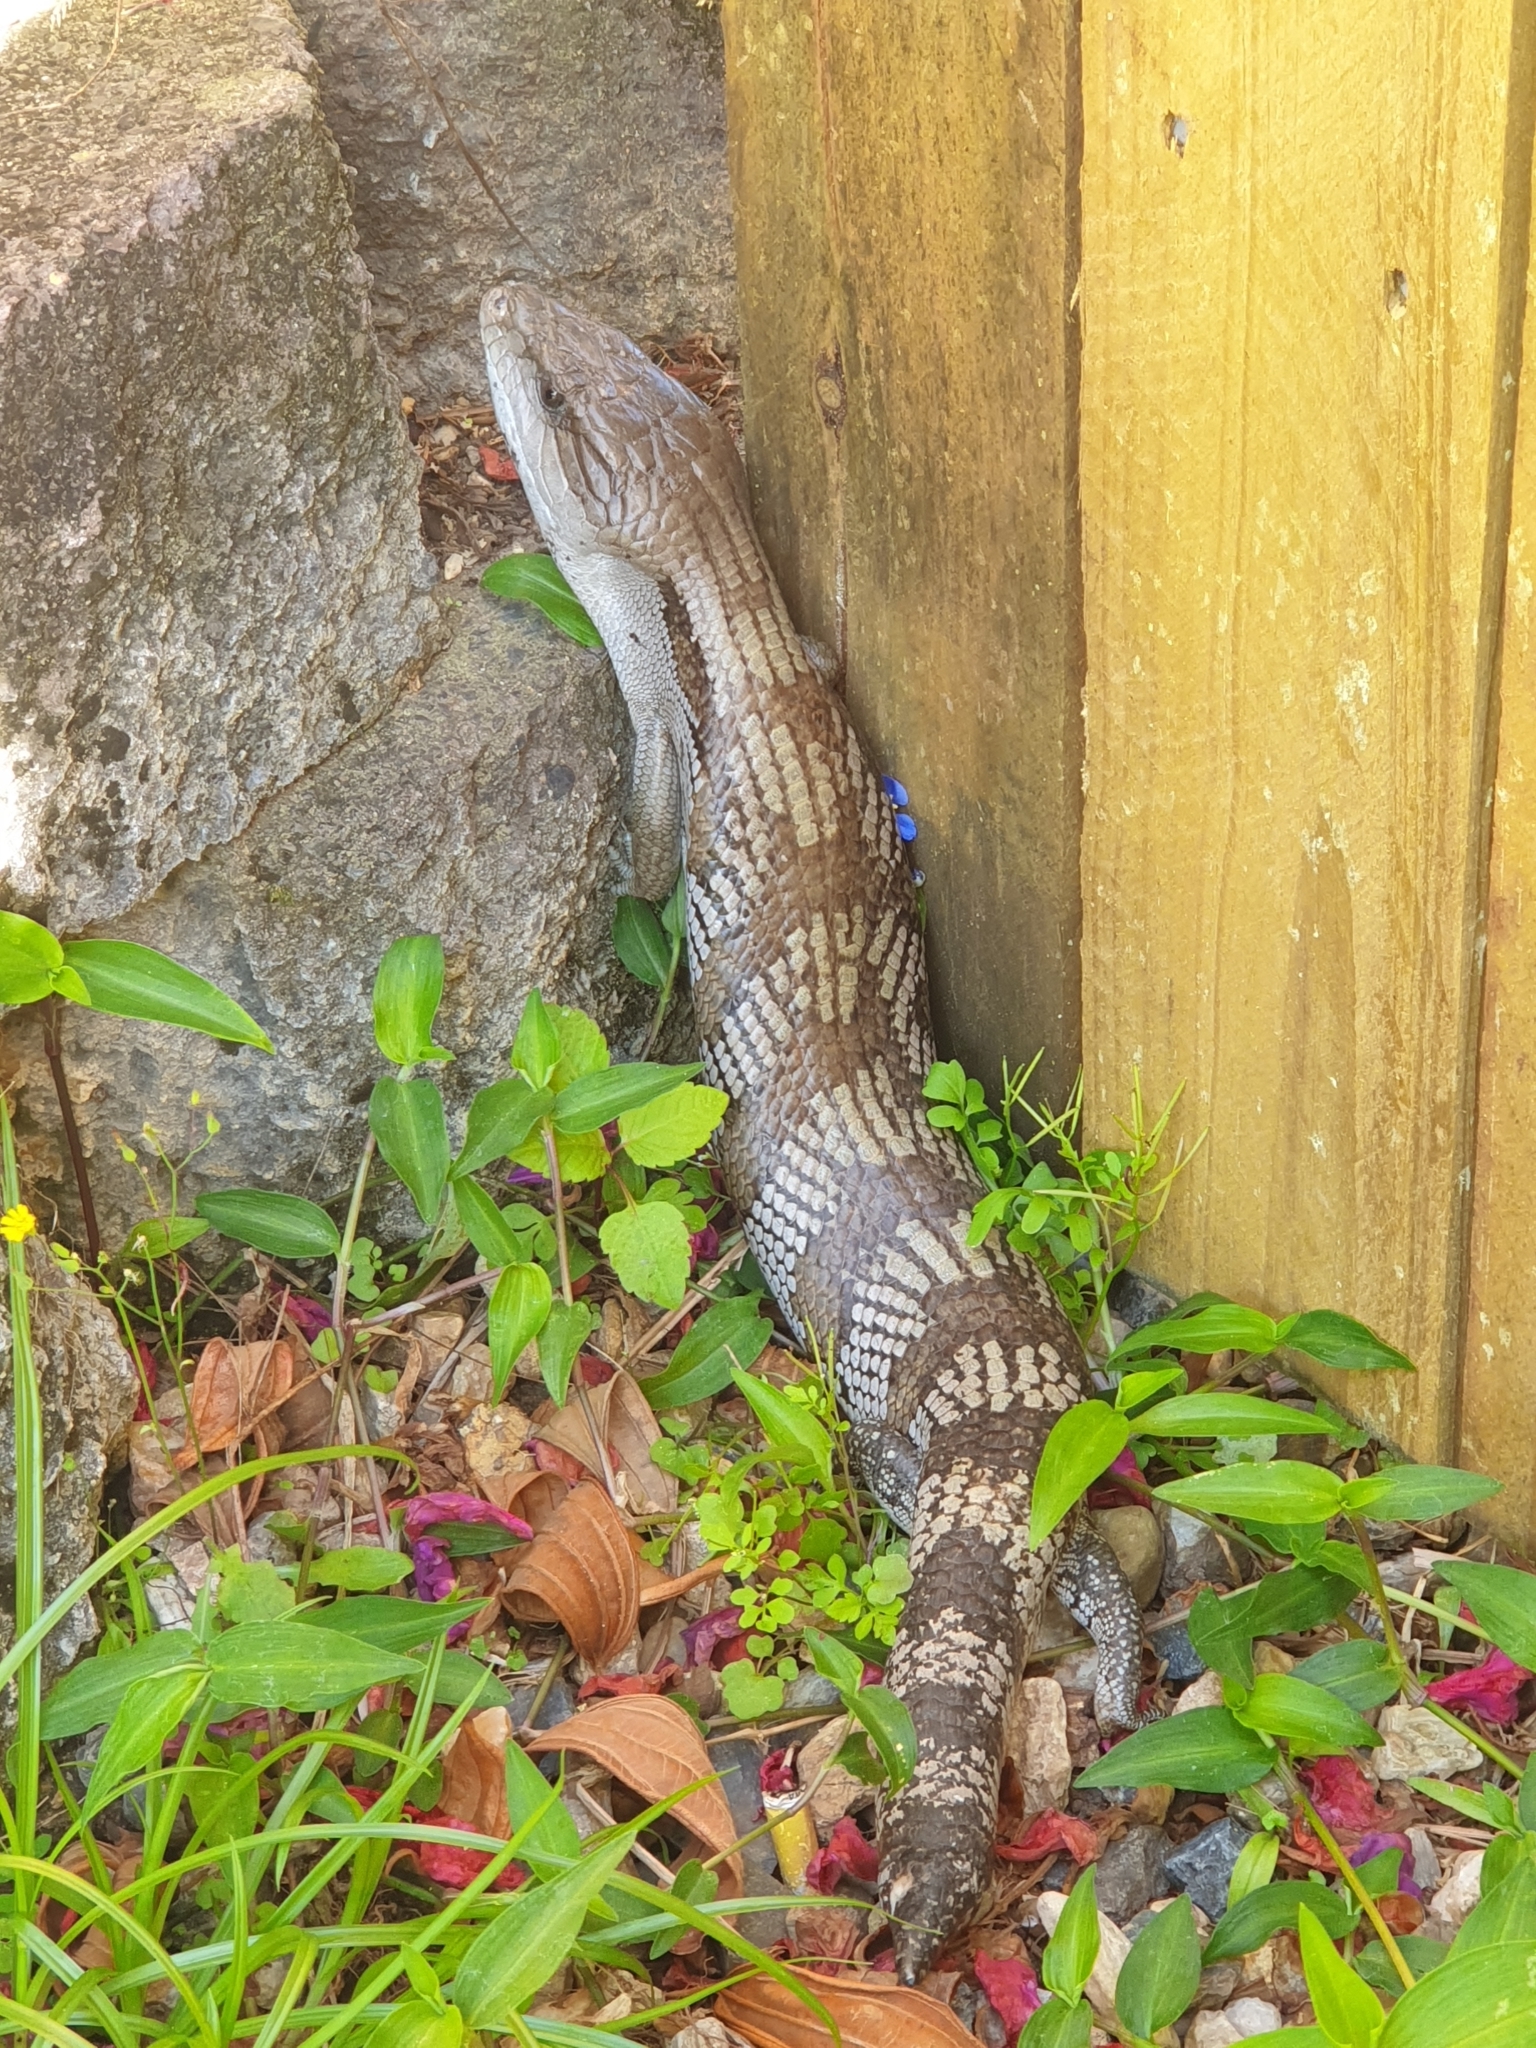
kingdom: Animalia
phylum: Chordata
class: Squamata
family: Scincidae
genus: Tiliqua
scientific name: Tiliqua scincoides
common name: Common bluetongue
